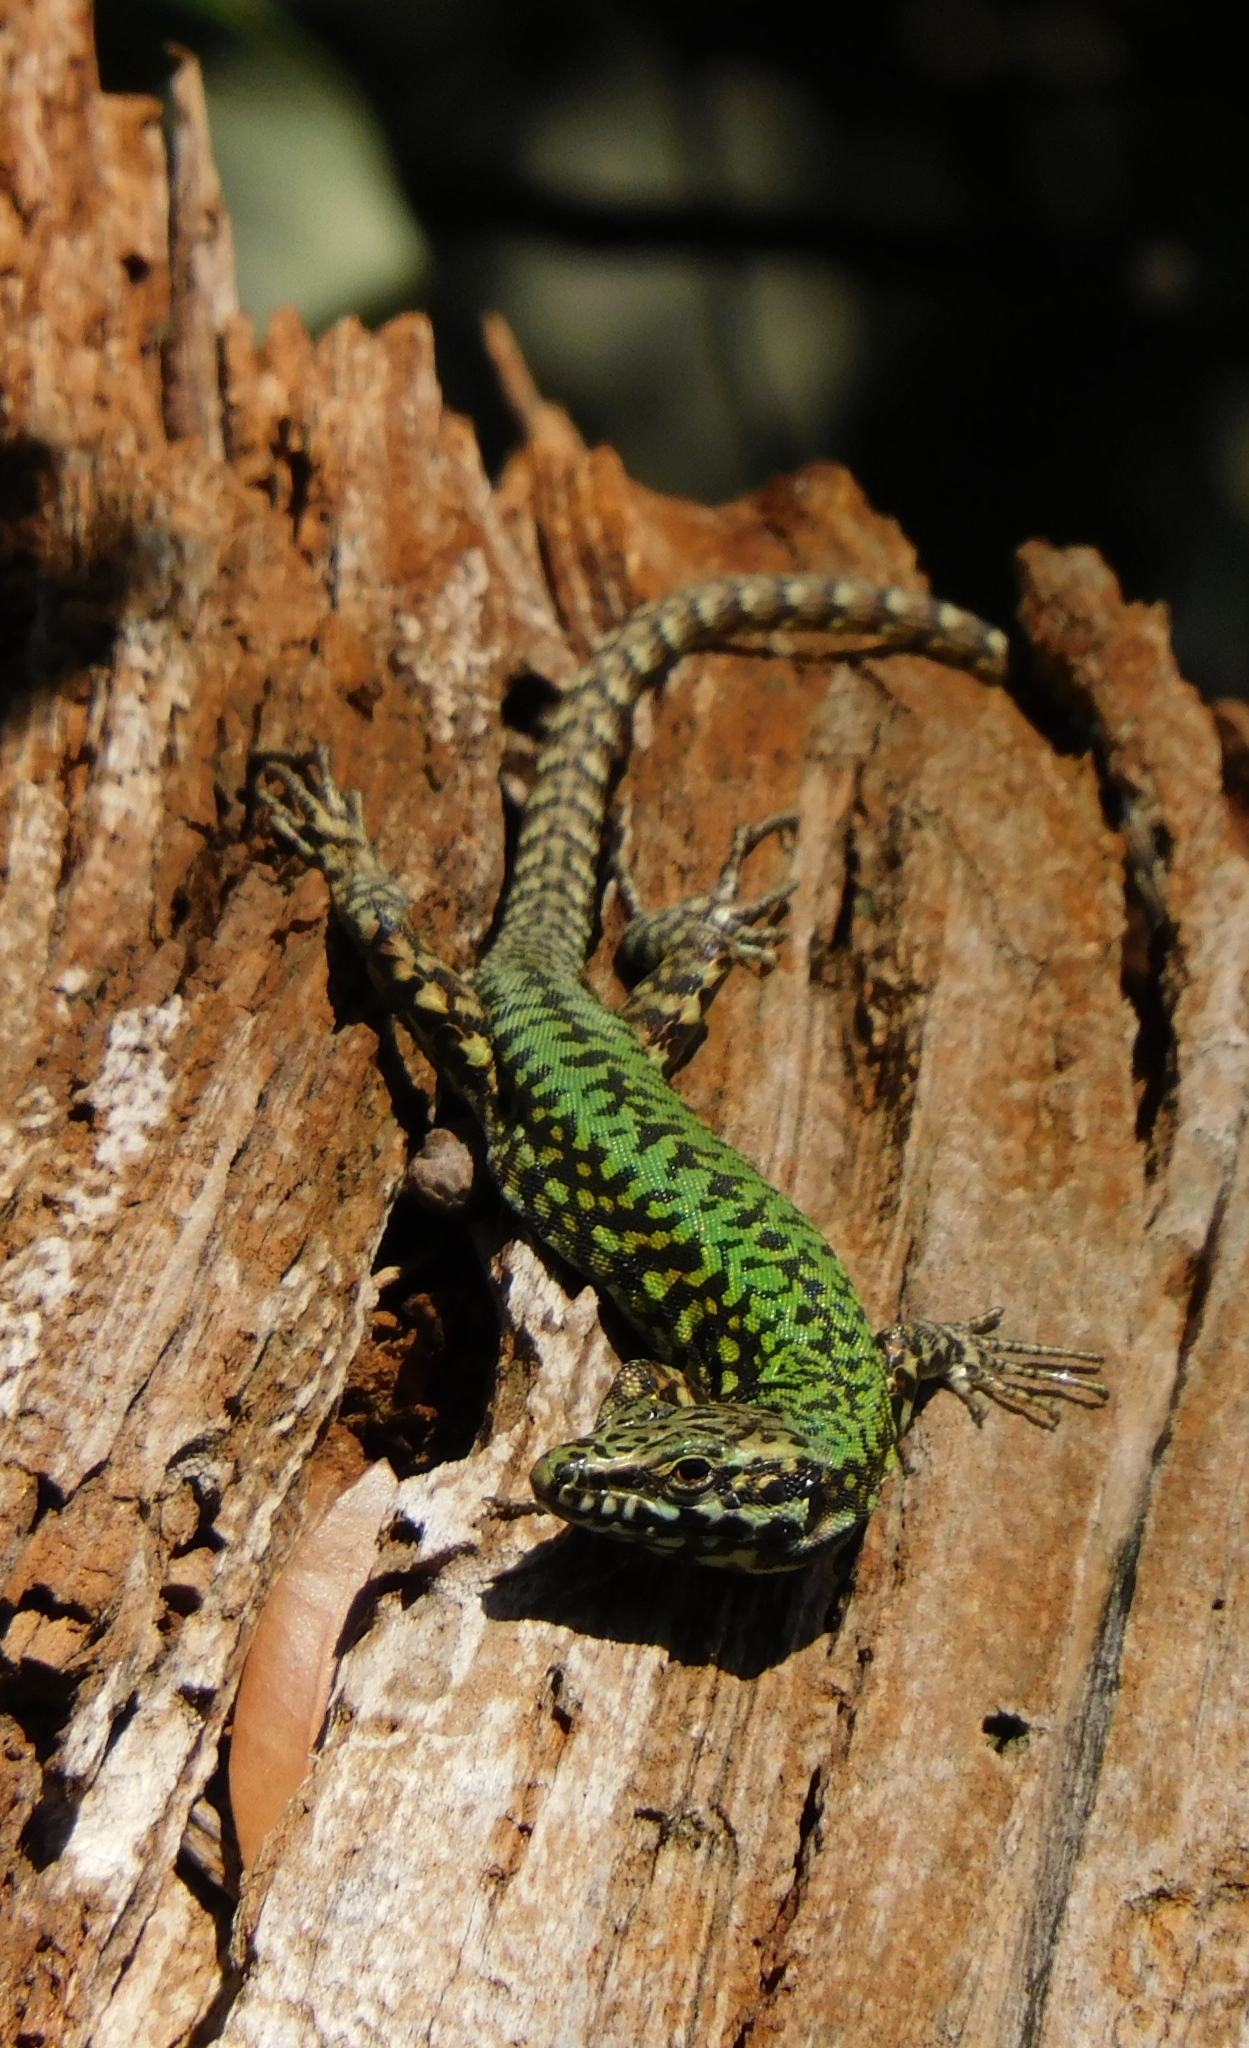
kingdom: Animalia
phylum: Chordata
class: Squamata
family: Lacertidae
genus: Podarcis
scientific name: Podarcis muralis
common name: Common wall lizard
